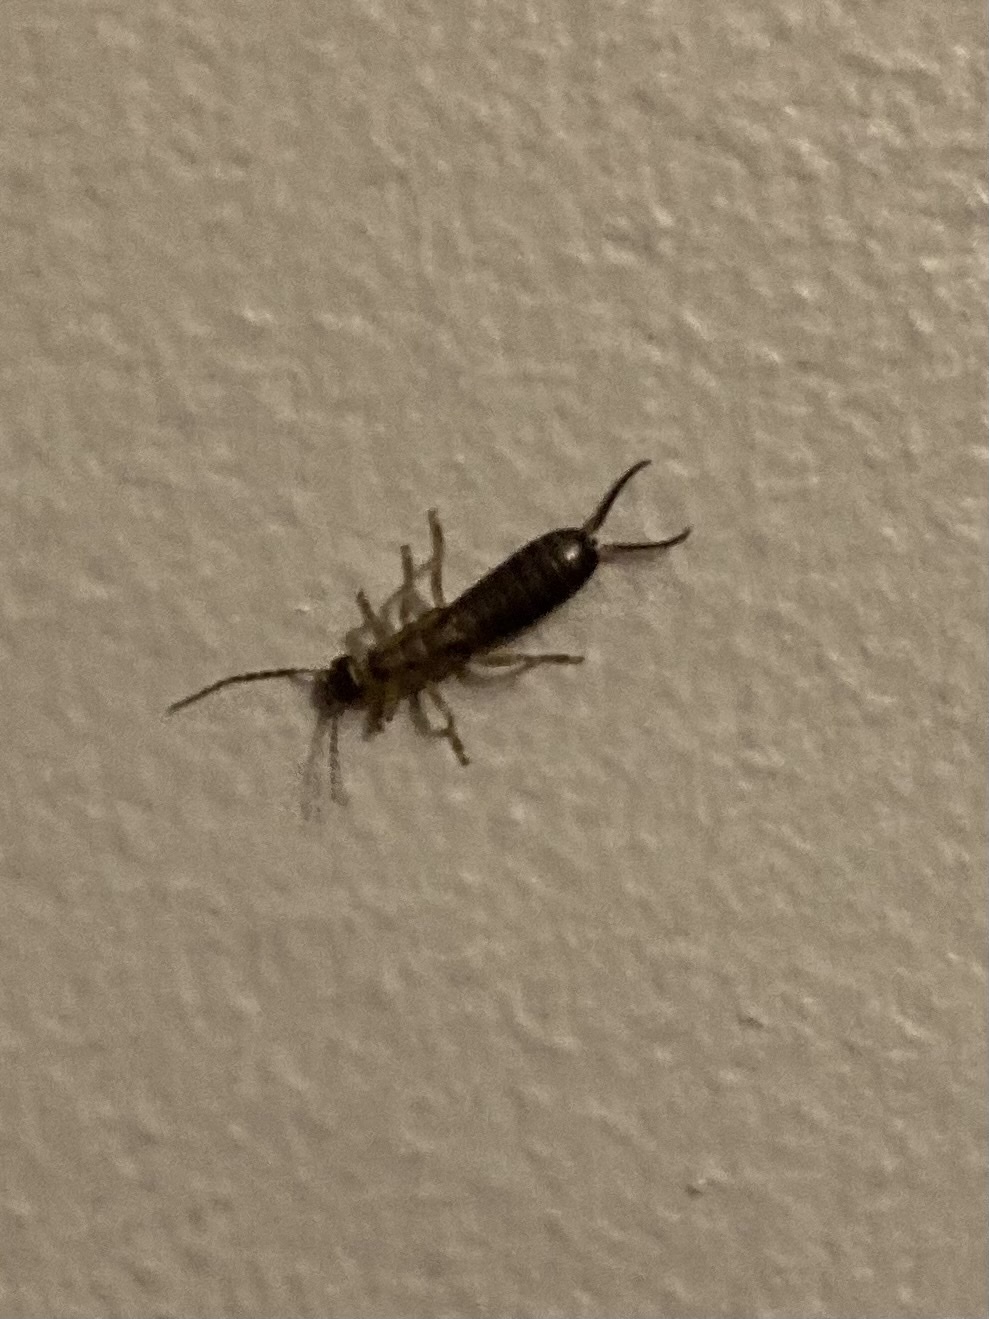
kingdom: Animalia
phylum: Arthropoda
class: Insecta
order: Dermaptera
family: Forficulidae
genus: Forficula
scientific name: Forficula
